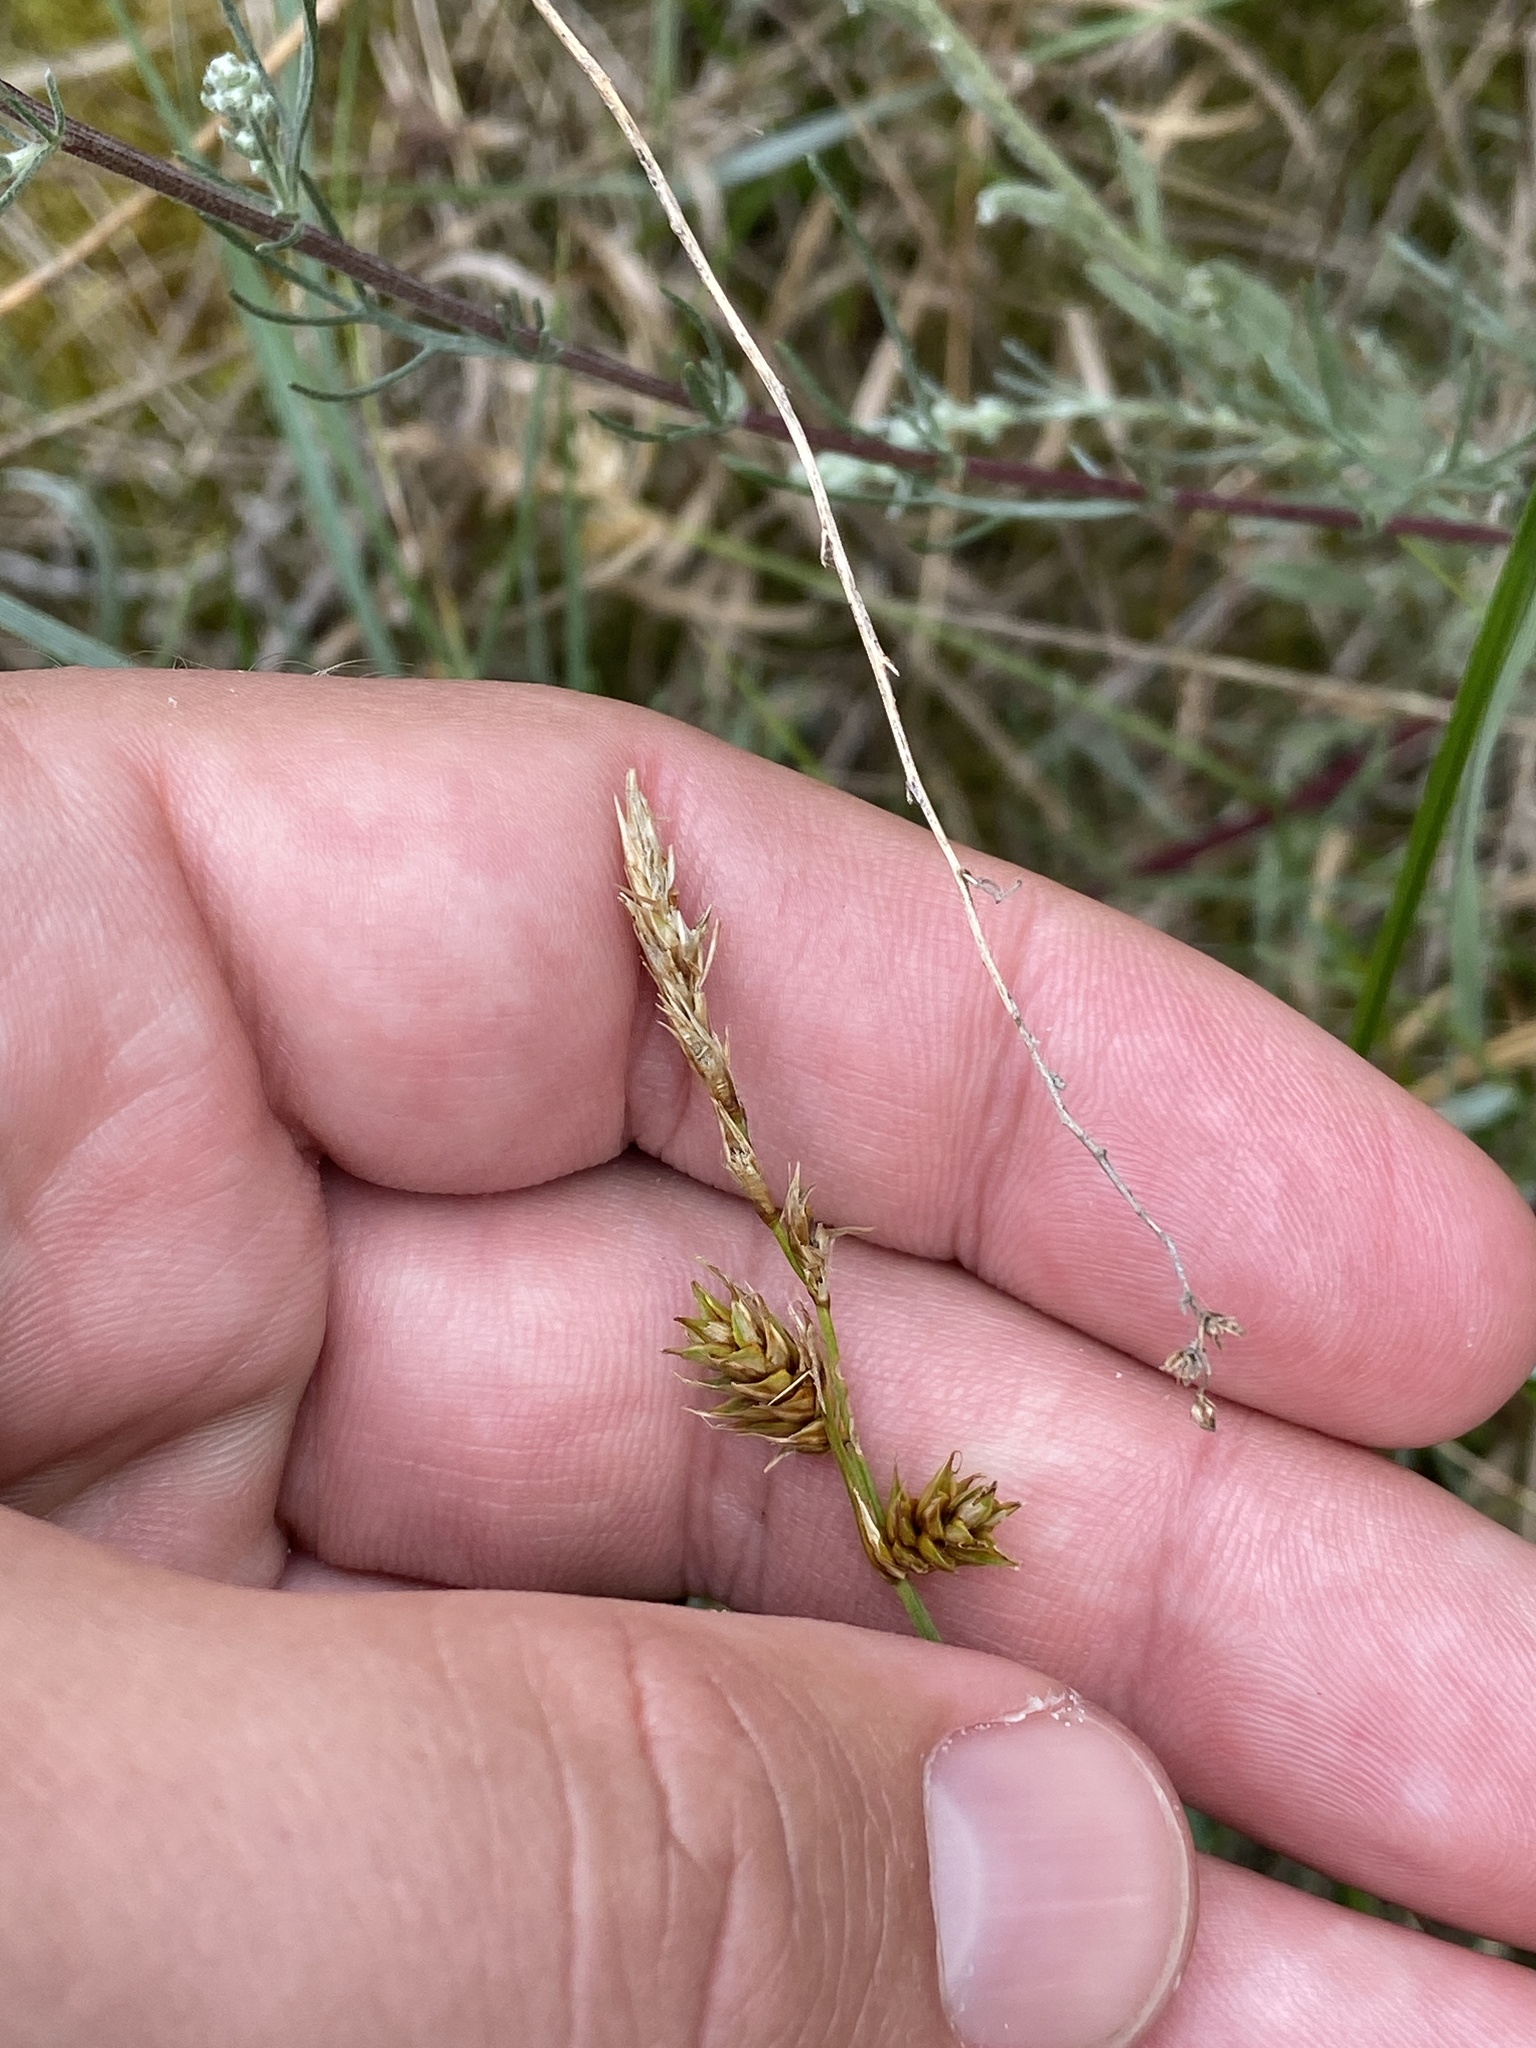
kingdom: Plantae
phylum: Tracheophyta
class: Liliopsida
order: Poales
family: Cyperaceae
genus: Carex
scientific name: Carex arenaria
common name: Sand sedge
